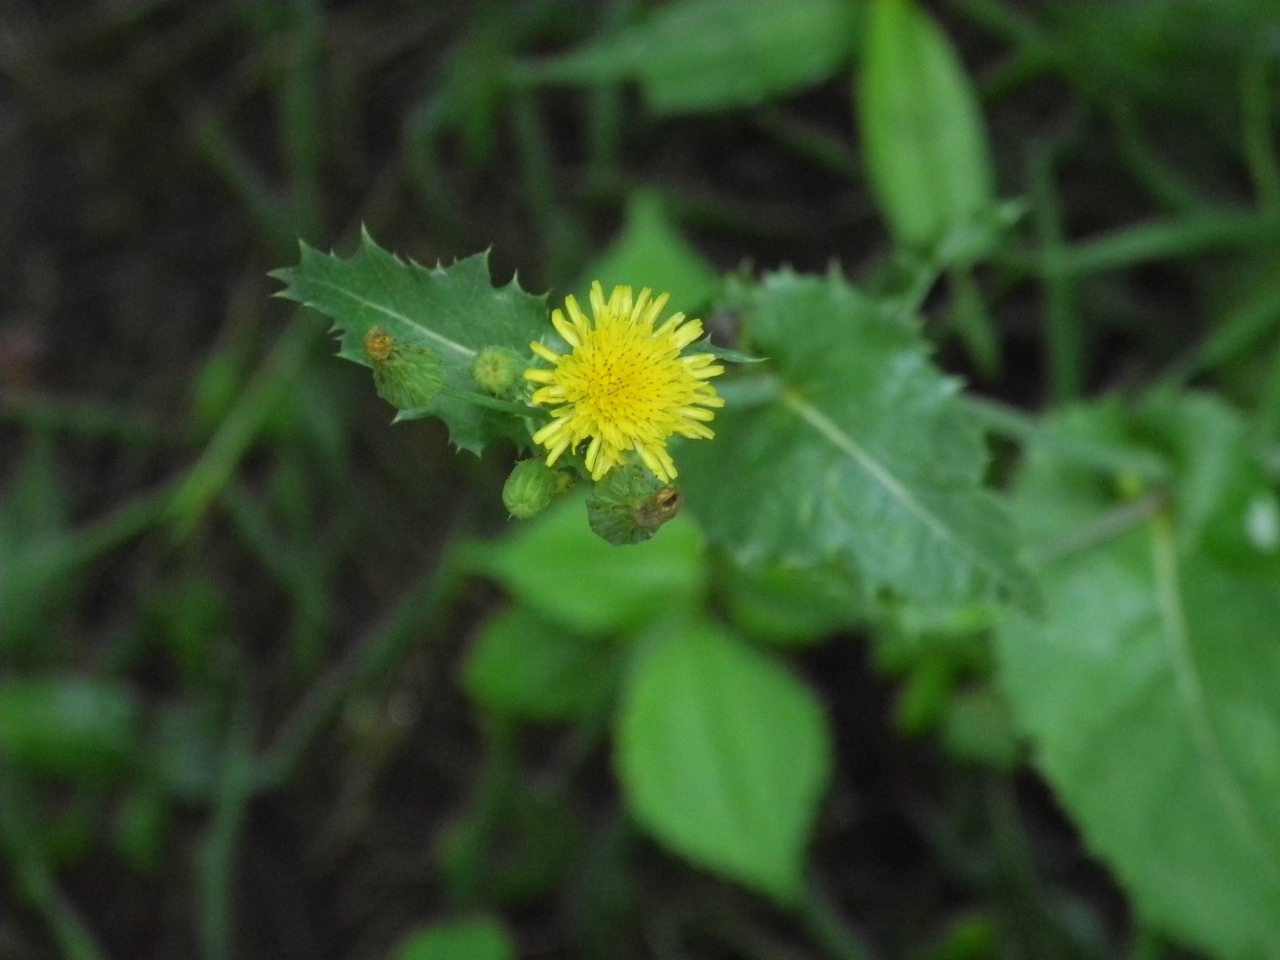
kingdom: Plantae
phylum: Tracheophyta
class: Magnoliopsida
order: Asterales
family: Asteraceae
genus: Sonchus
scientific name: Sonchus asper
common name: Prickly sow-thistle
